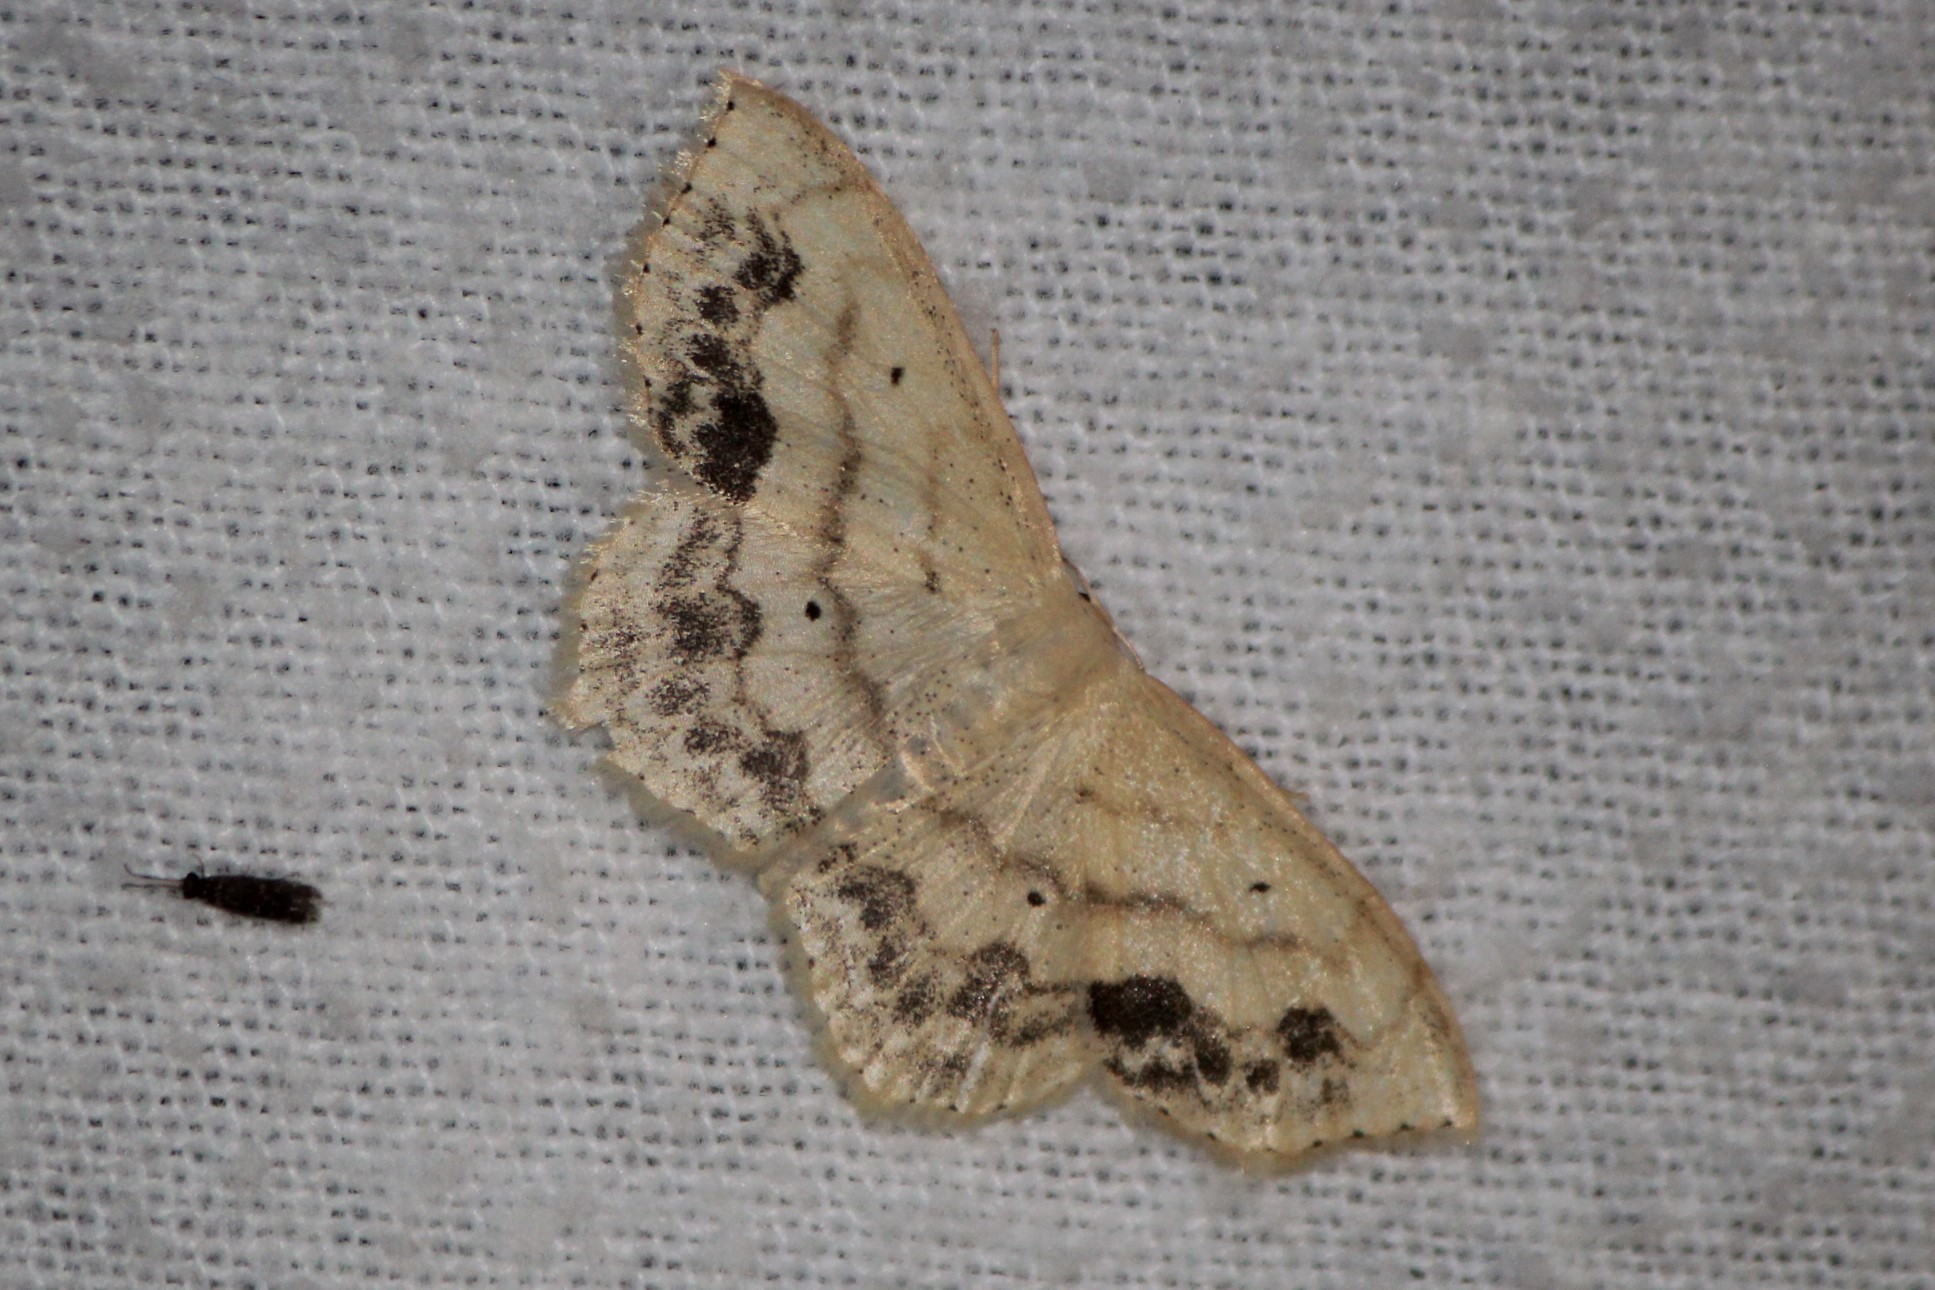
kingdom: Animalia
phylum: Arthropoda
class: Insecta
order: Lepidoptera
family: Geometridae
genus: Scopula
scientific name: Scopula limboundata
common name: Large lace border
